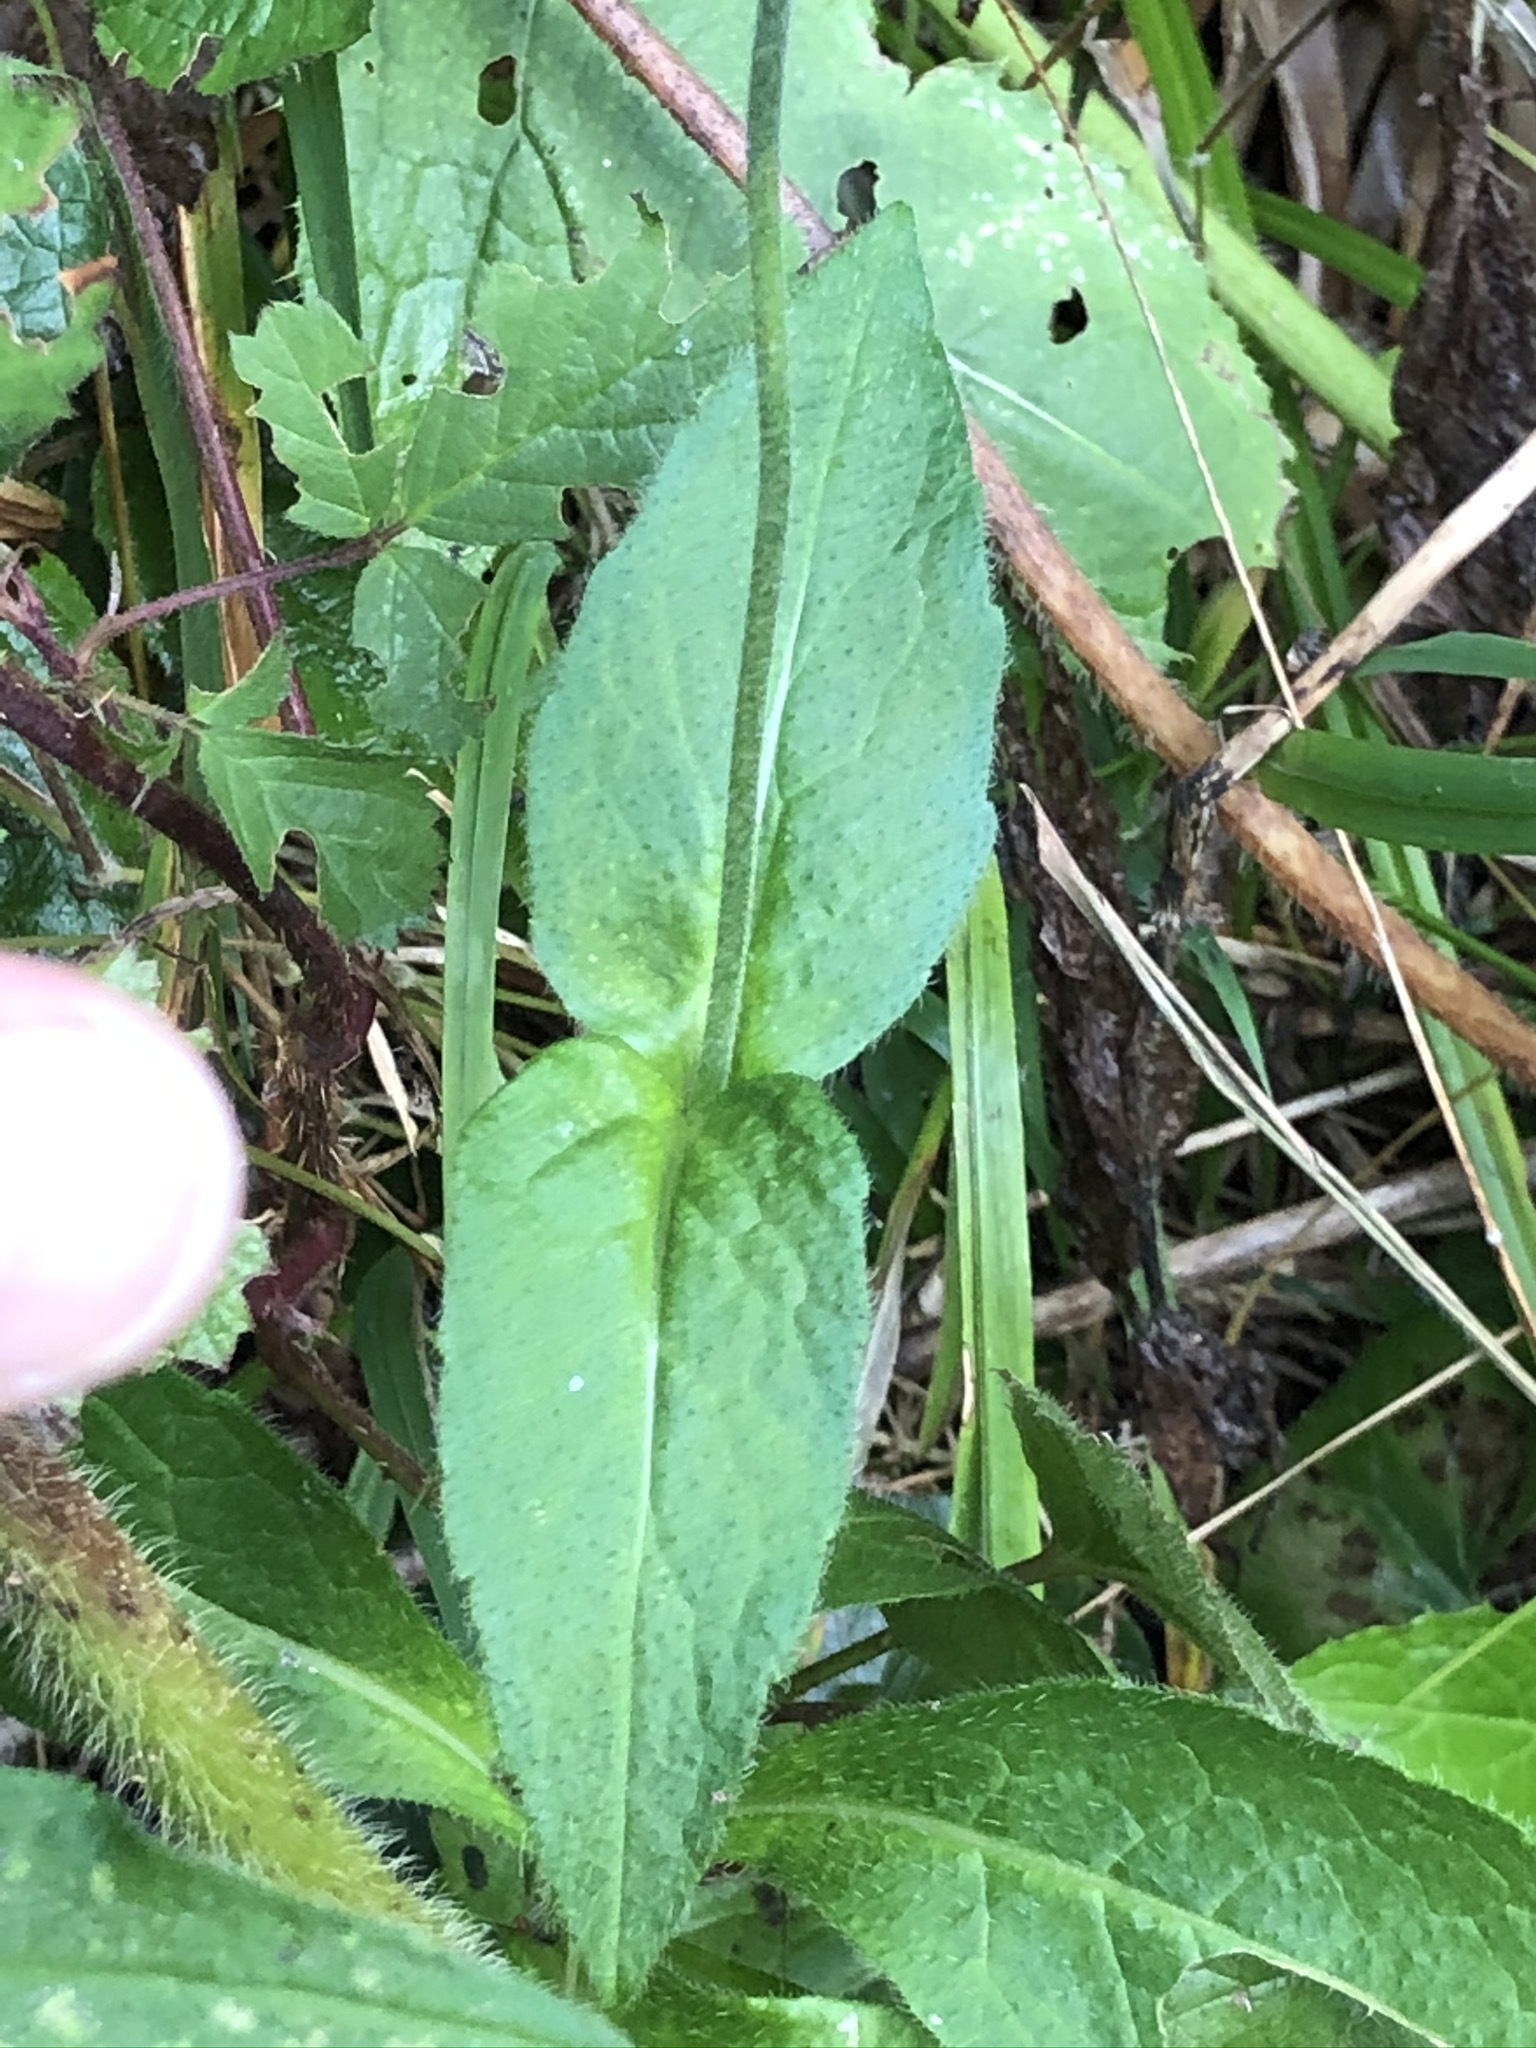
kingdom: Plantae
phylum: Tracheophyta
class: Magnoliopsida
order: Dipsacales
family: Caprifoliaceae
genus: Knautia
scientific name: Knautia dipsacifolia
